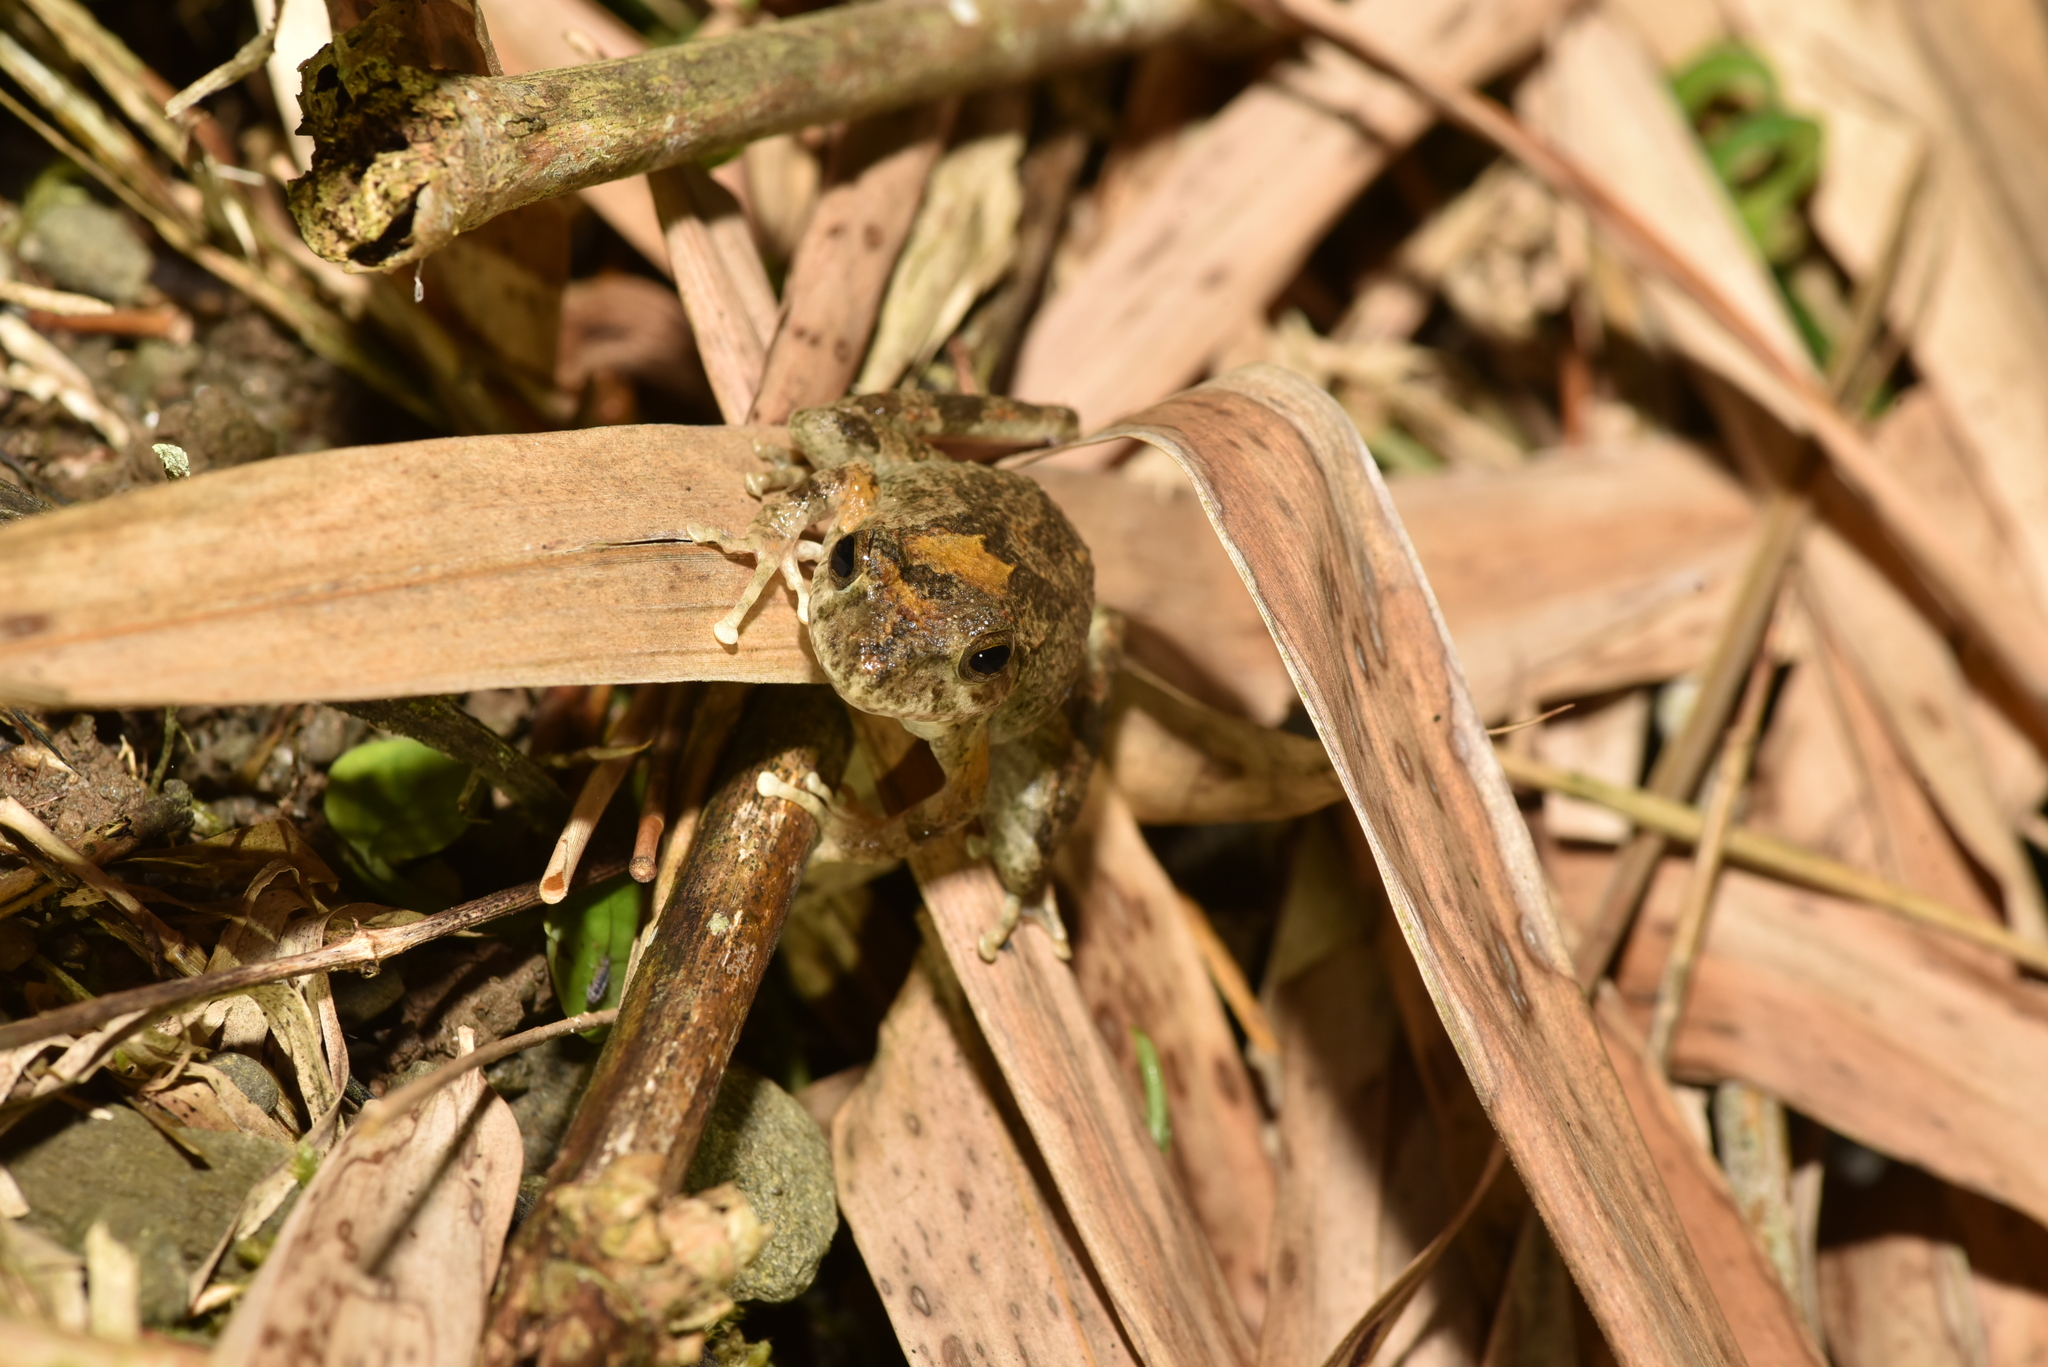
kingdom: Animalia
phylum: Chordata
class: Amphibia
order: Anura
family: Rhacophoridae
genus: Buergeria
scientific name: Buergeria otai
